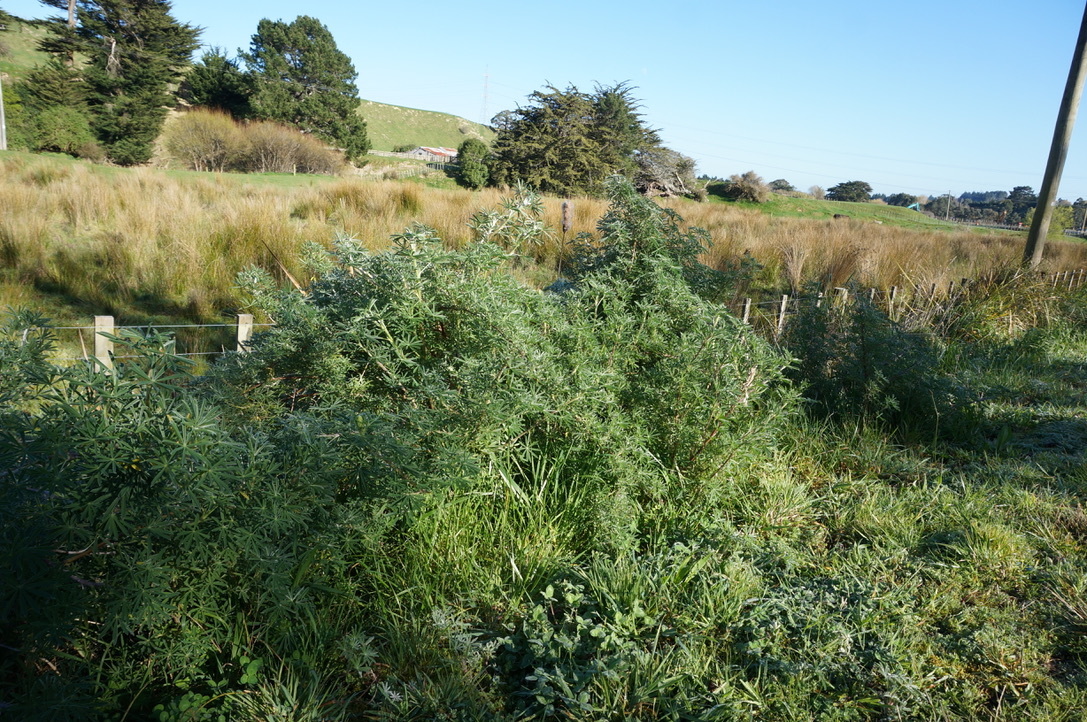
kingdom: Plantae
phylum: Tracheophyta
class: Magnoliopsida
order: Fabales
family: Fabaceae
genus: Lupinus
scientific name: Lupinus arboreus
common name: Yellow bush lupine
